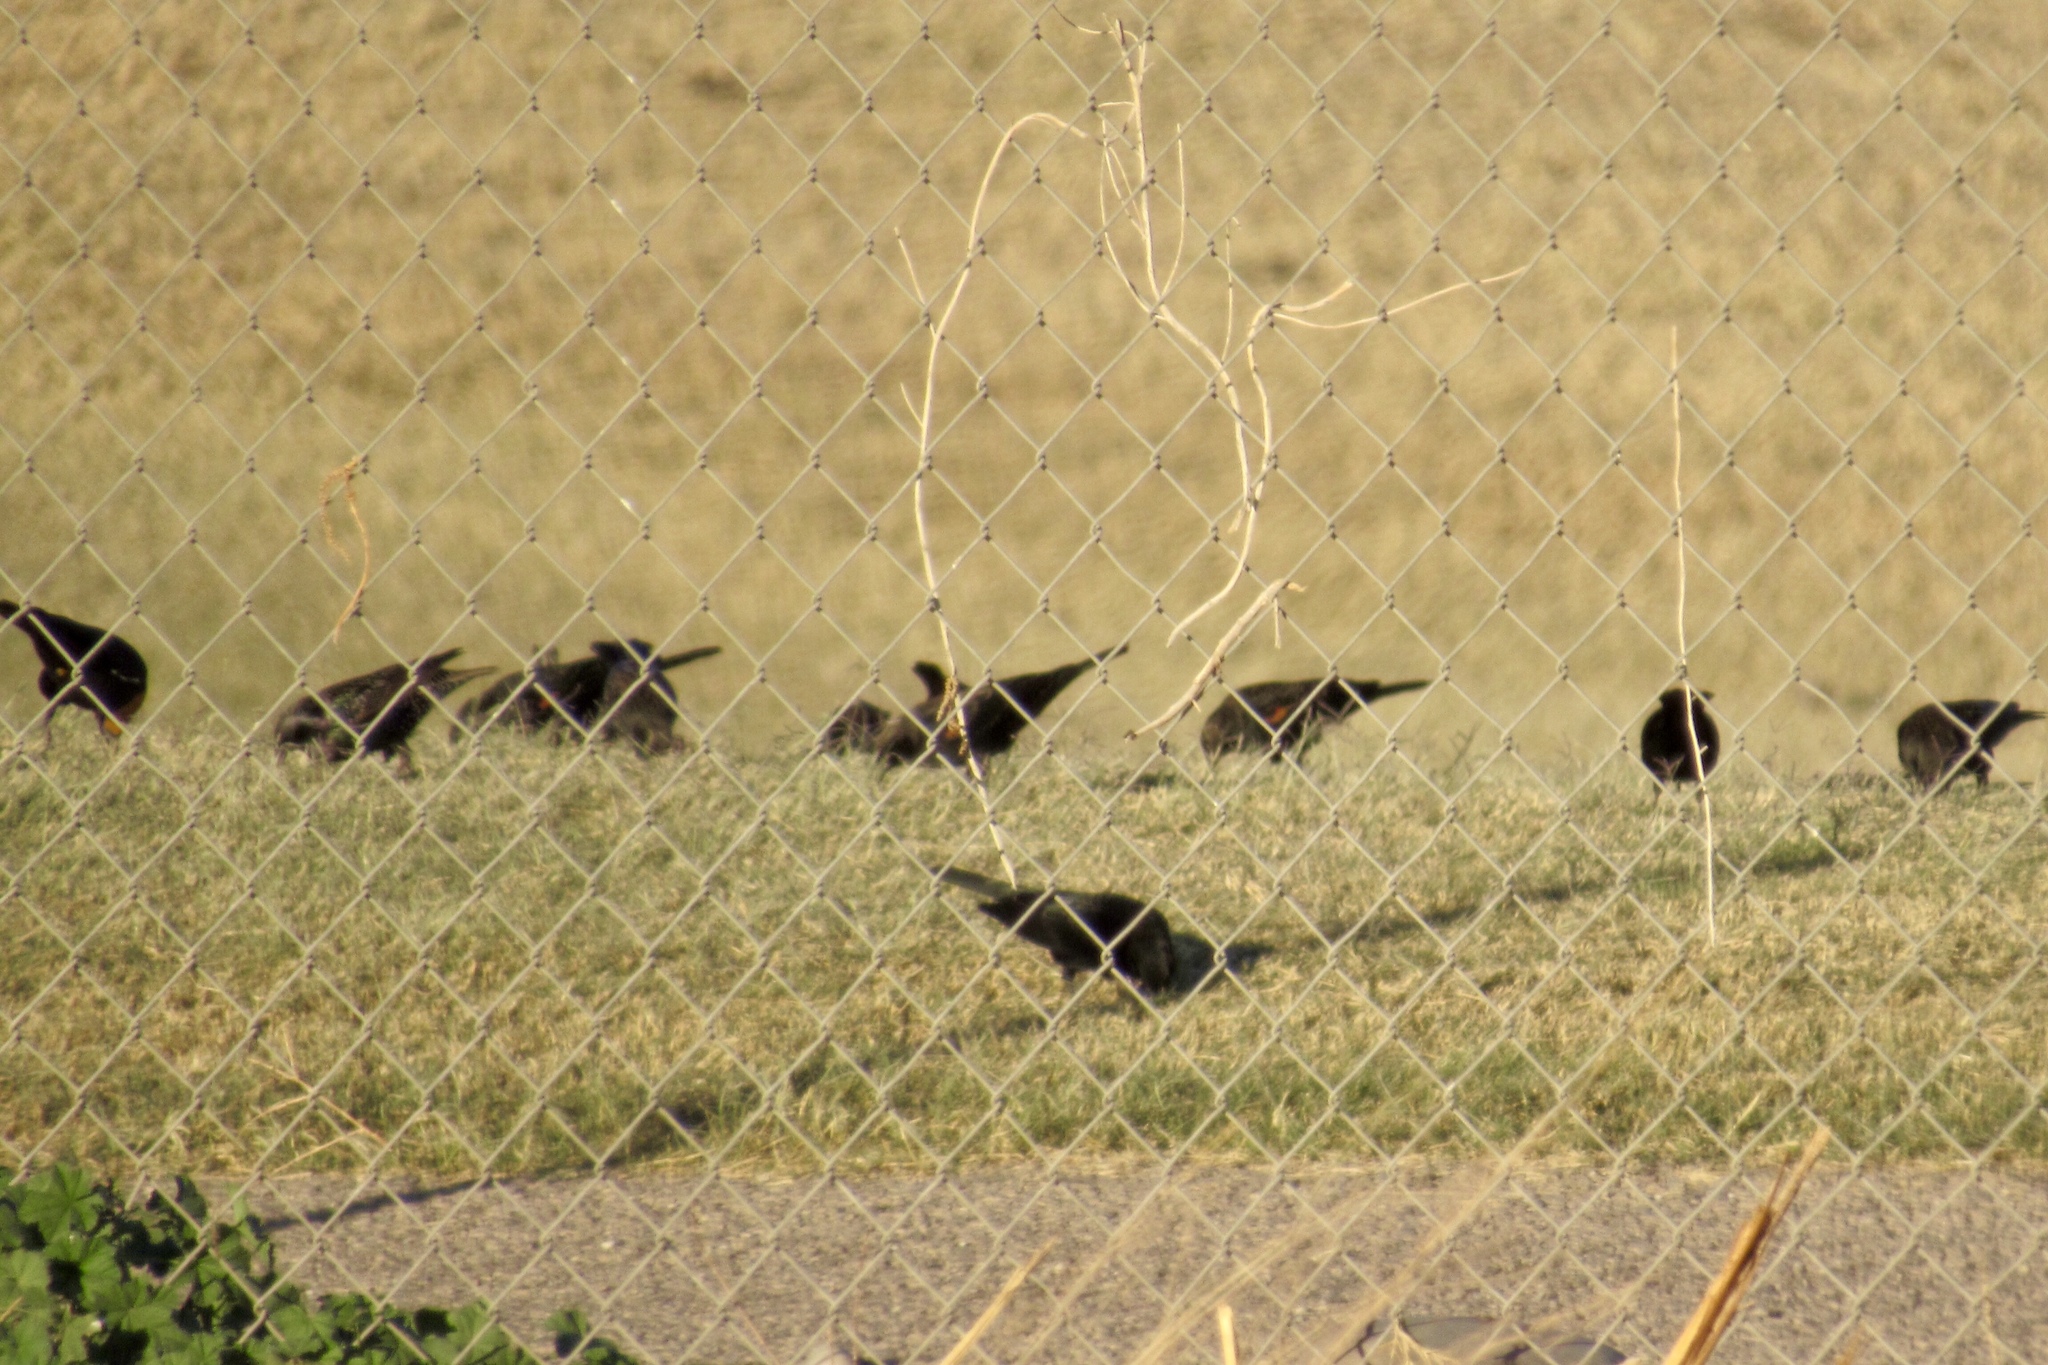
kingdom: Animalia
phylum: Chordata
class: Aves
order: Passeriformes
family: Icteridae
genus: Agelaius
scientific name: Agelaius phoeniceus
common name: Red-winged blackbird
